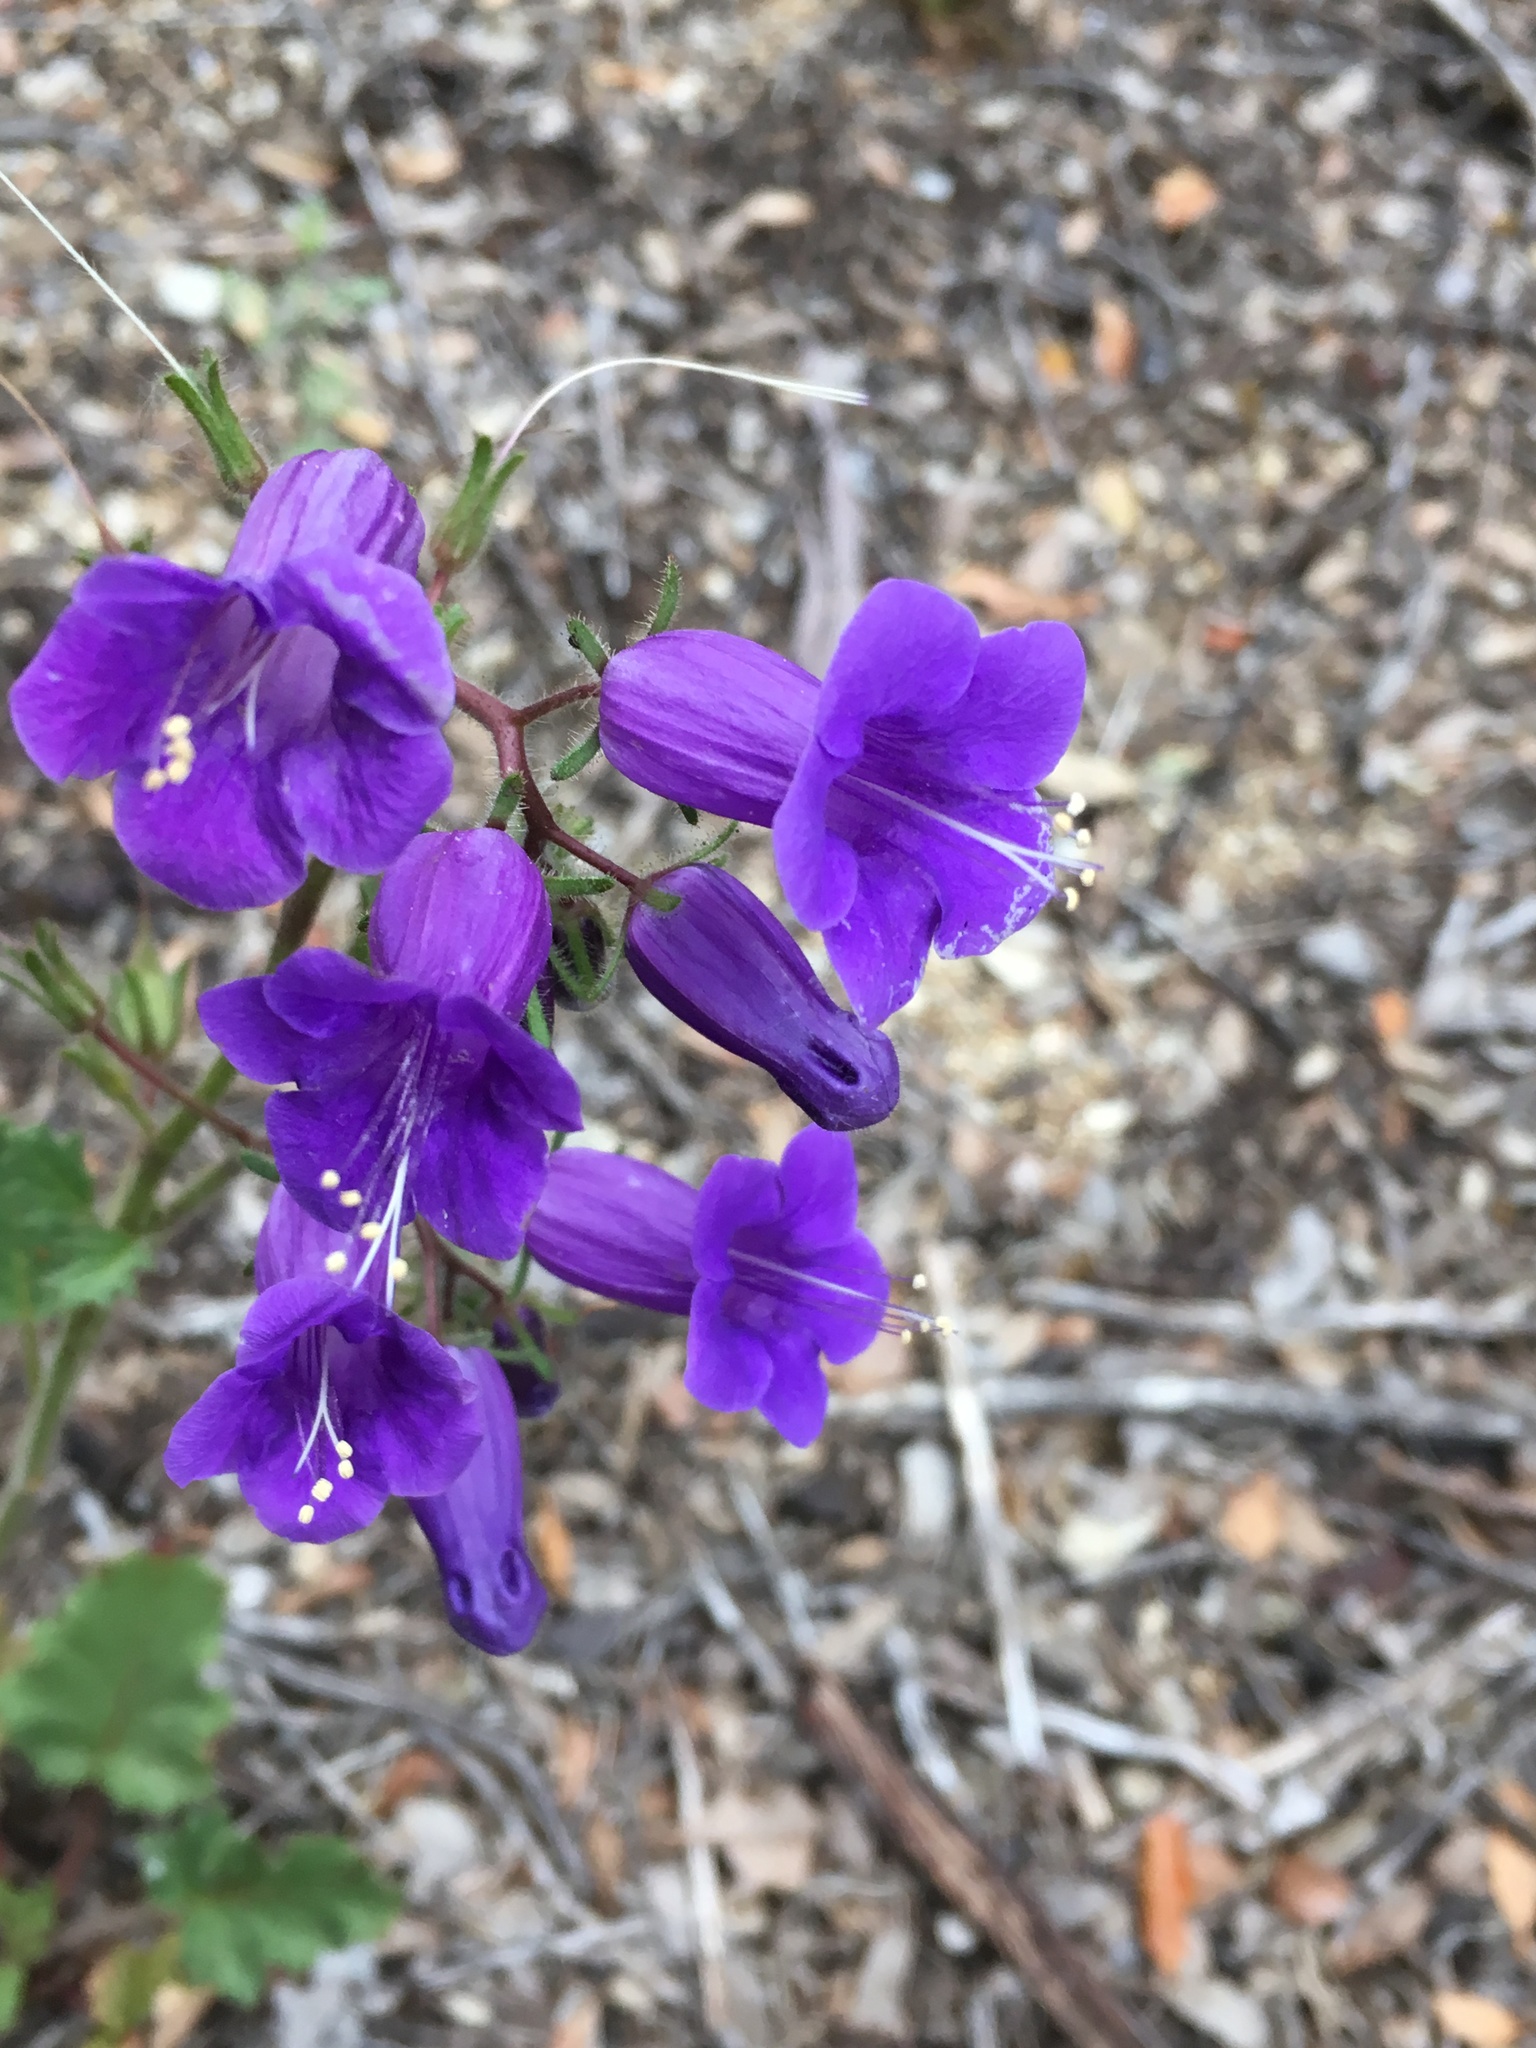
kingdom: Plantae
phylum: Tracheophyta
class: Magnoliopsida
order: Boraginales
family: Hydrophyllaceae
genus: Phacelia
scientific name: Phacelia minor
